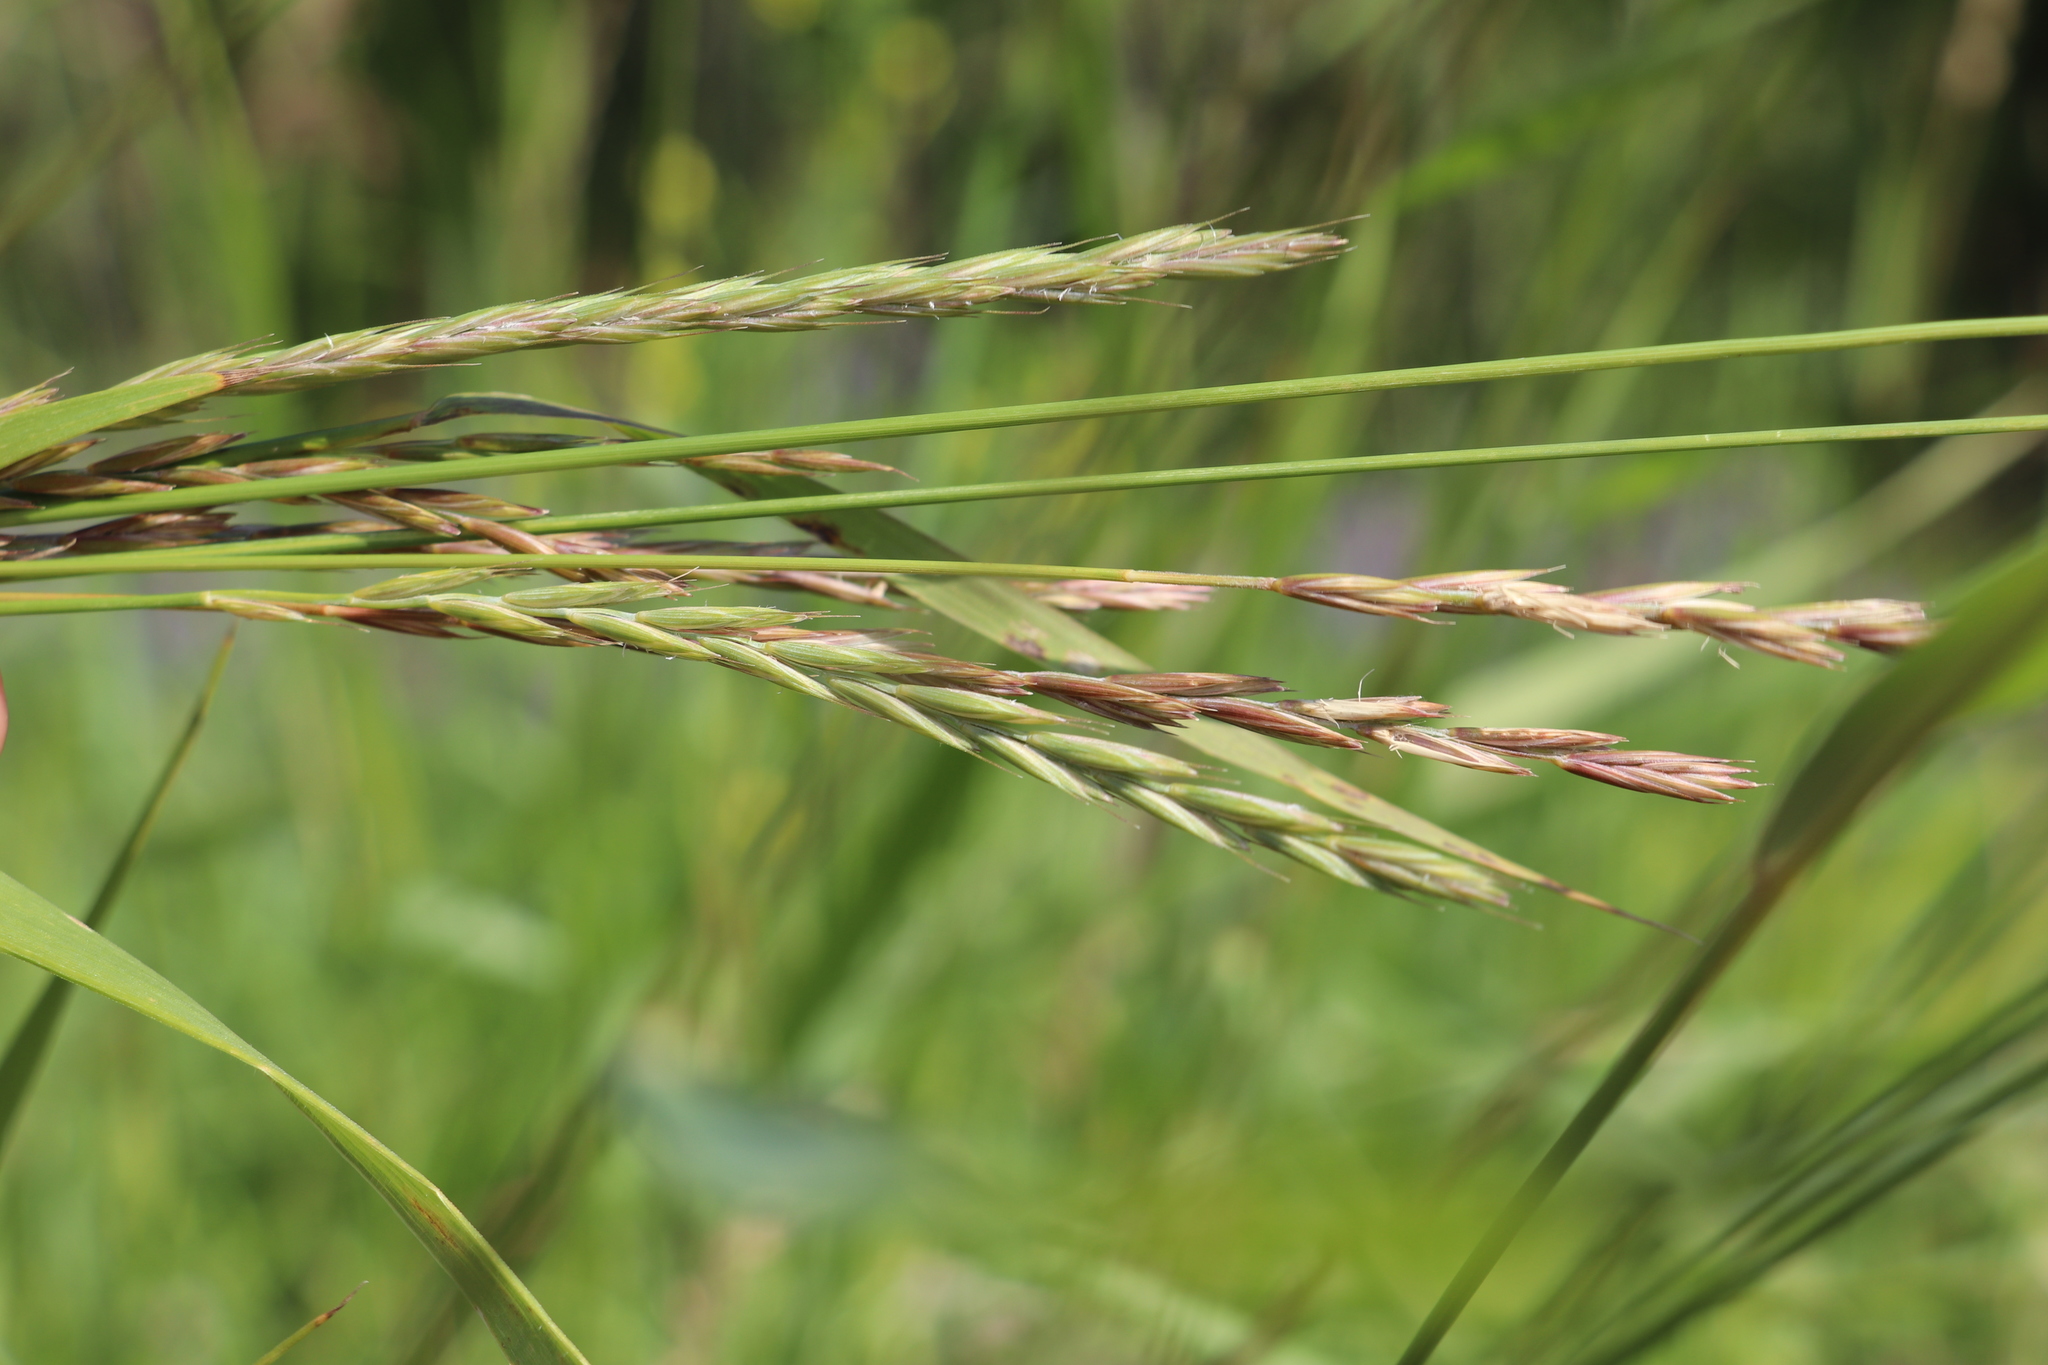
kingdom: Plantae
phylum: Tracheophyta
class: Liliopsida
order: Poales
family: Poaceae
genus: Elymus
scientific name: Elymus repens
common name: Quackgrass
